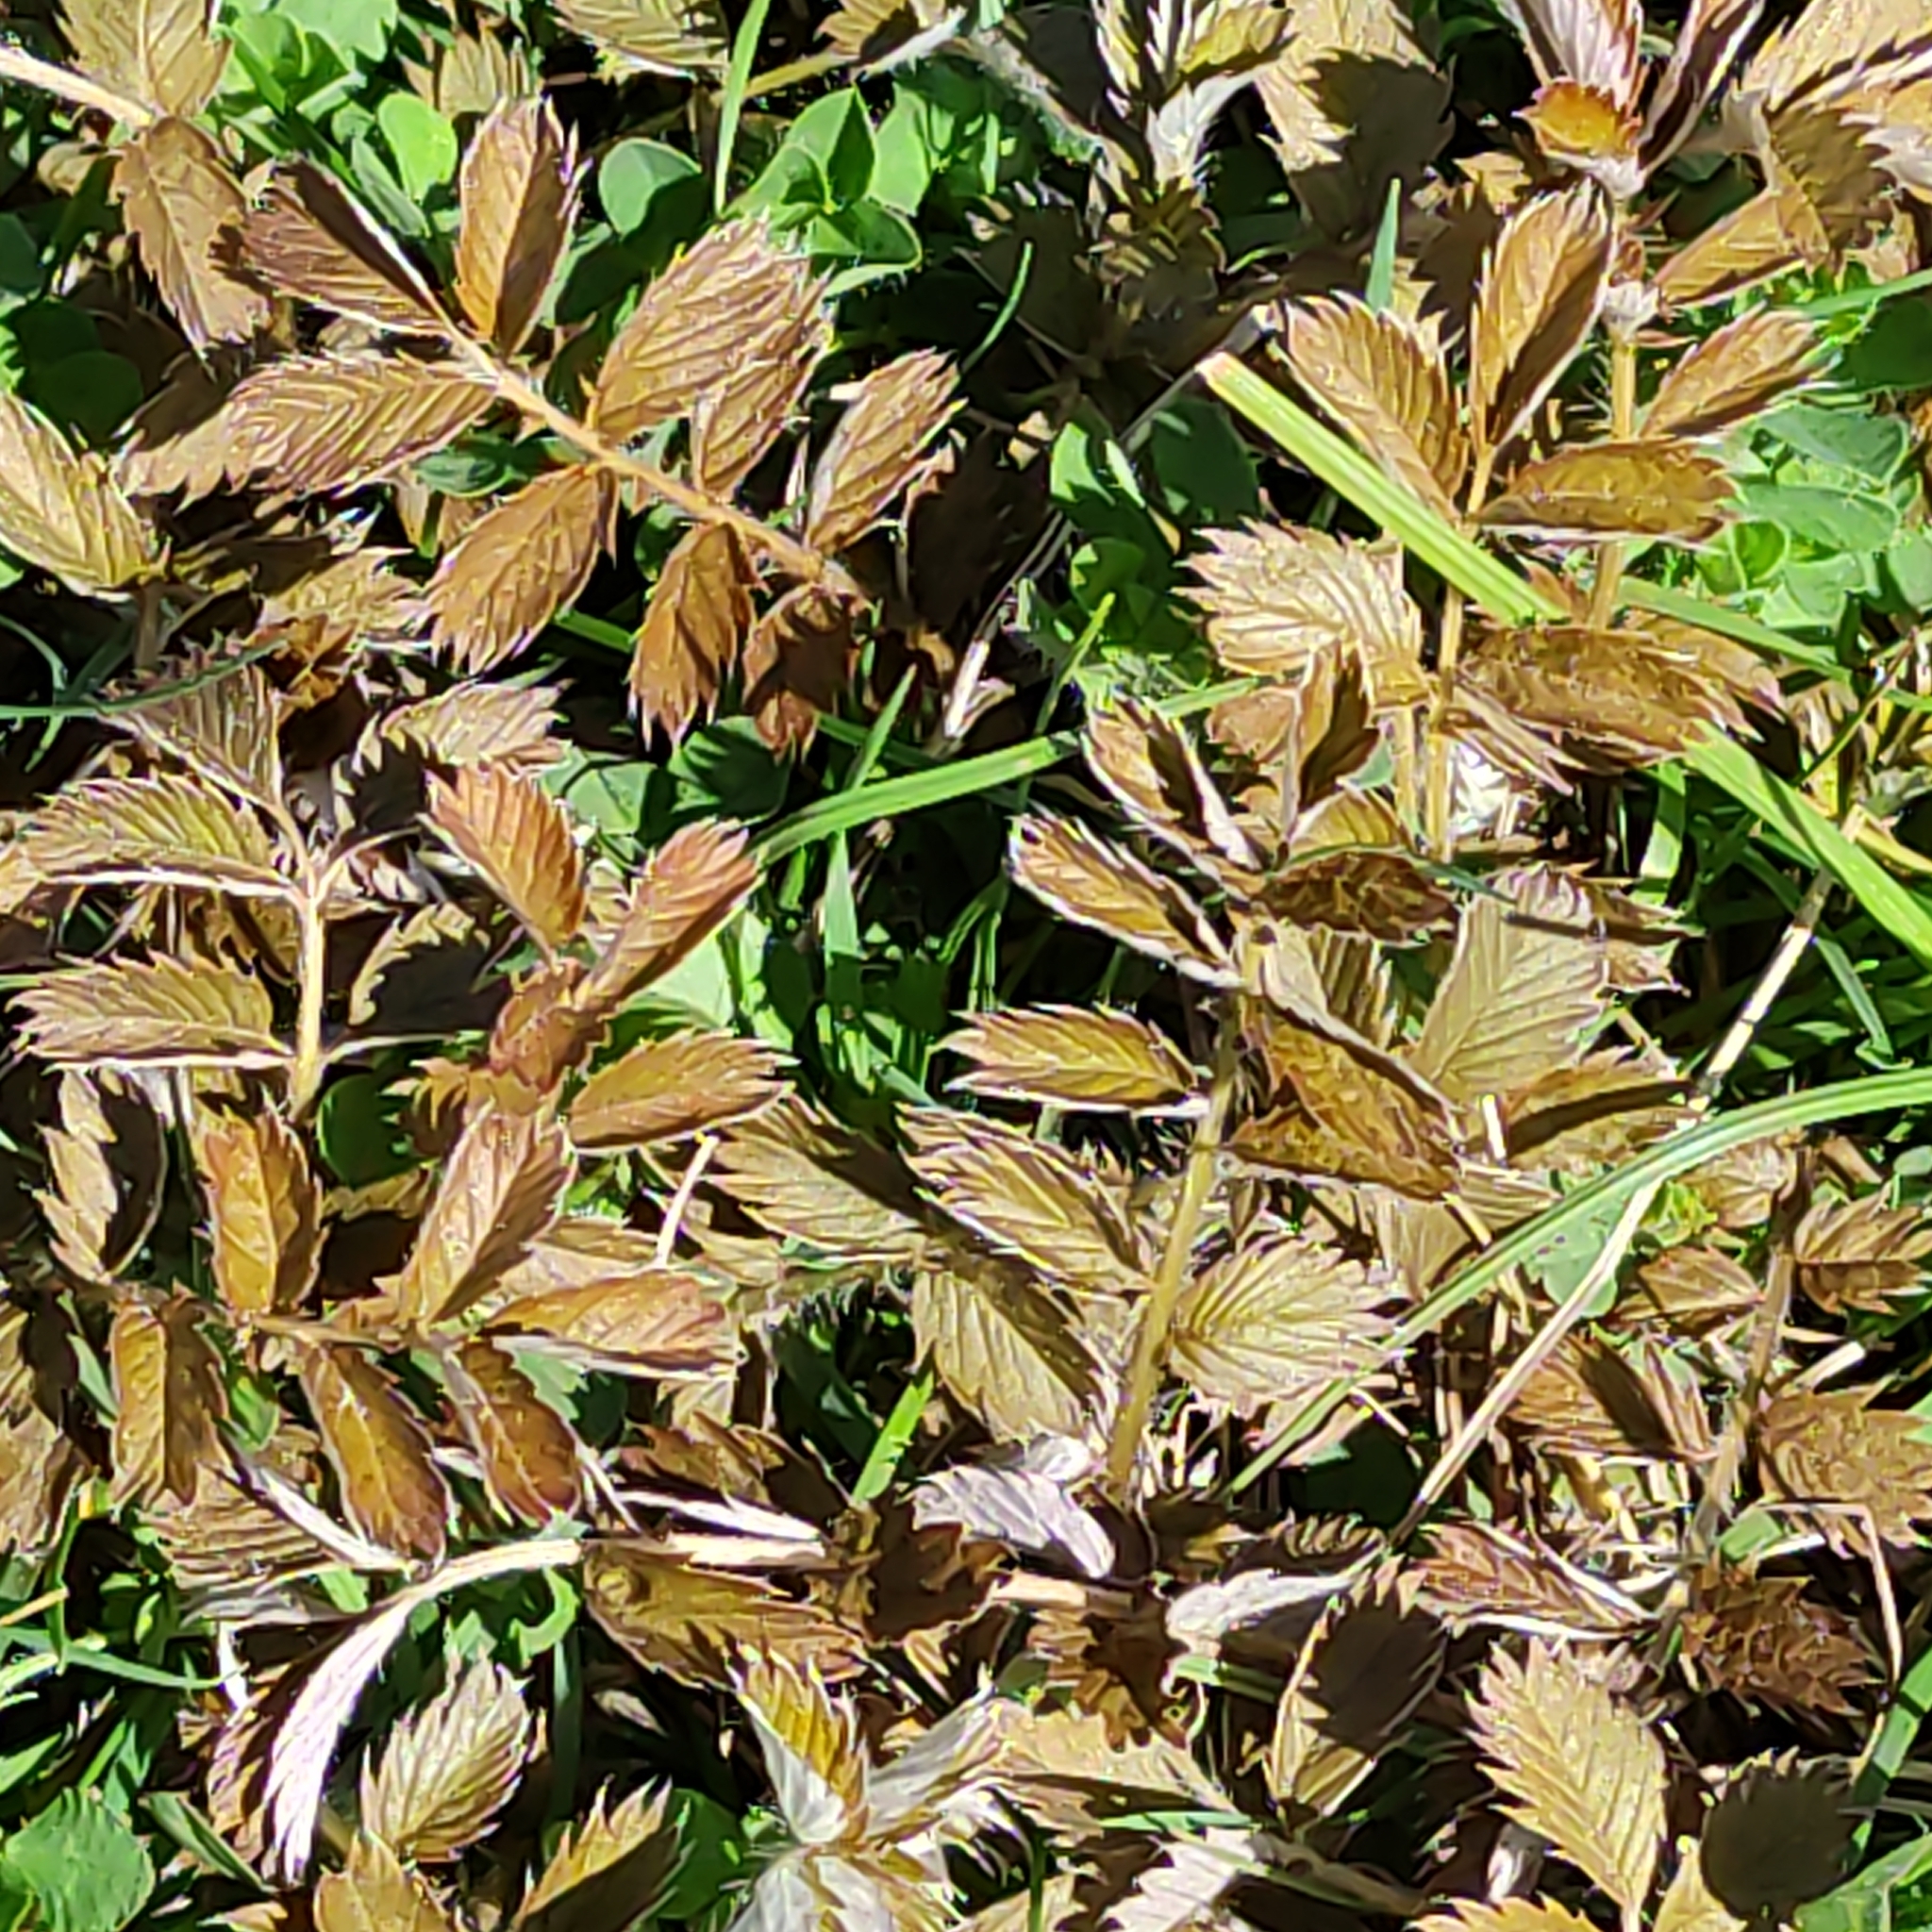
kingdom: Plantae
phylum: Tracheophyta
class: Magnoliopsida
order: Rosales
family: Rosaceae
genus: Argentina
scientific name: Argentina anserina
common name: Common silverweed
